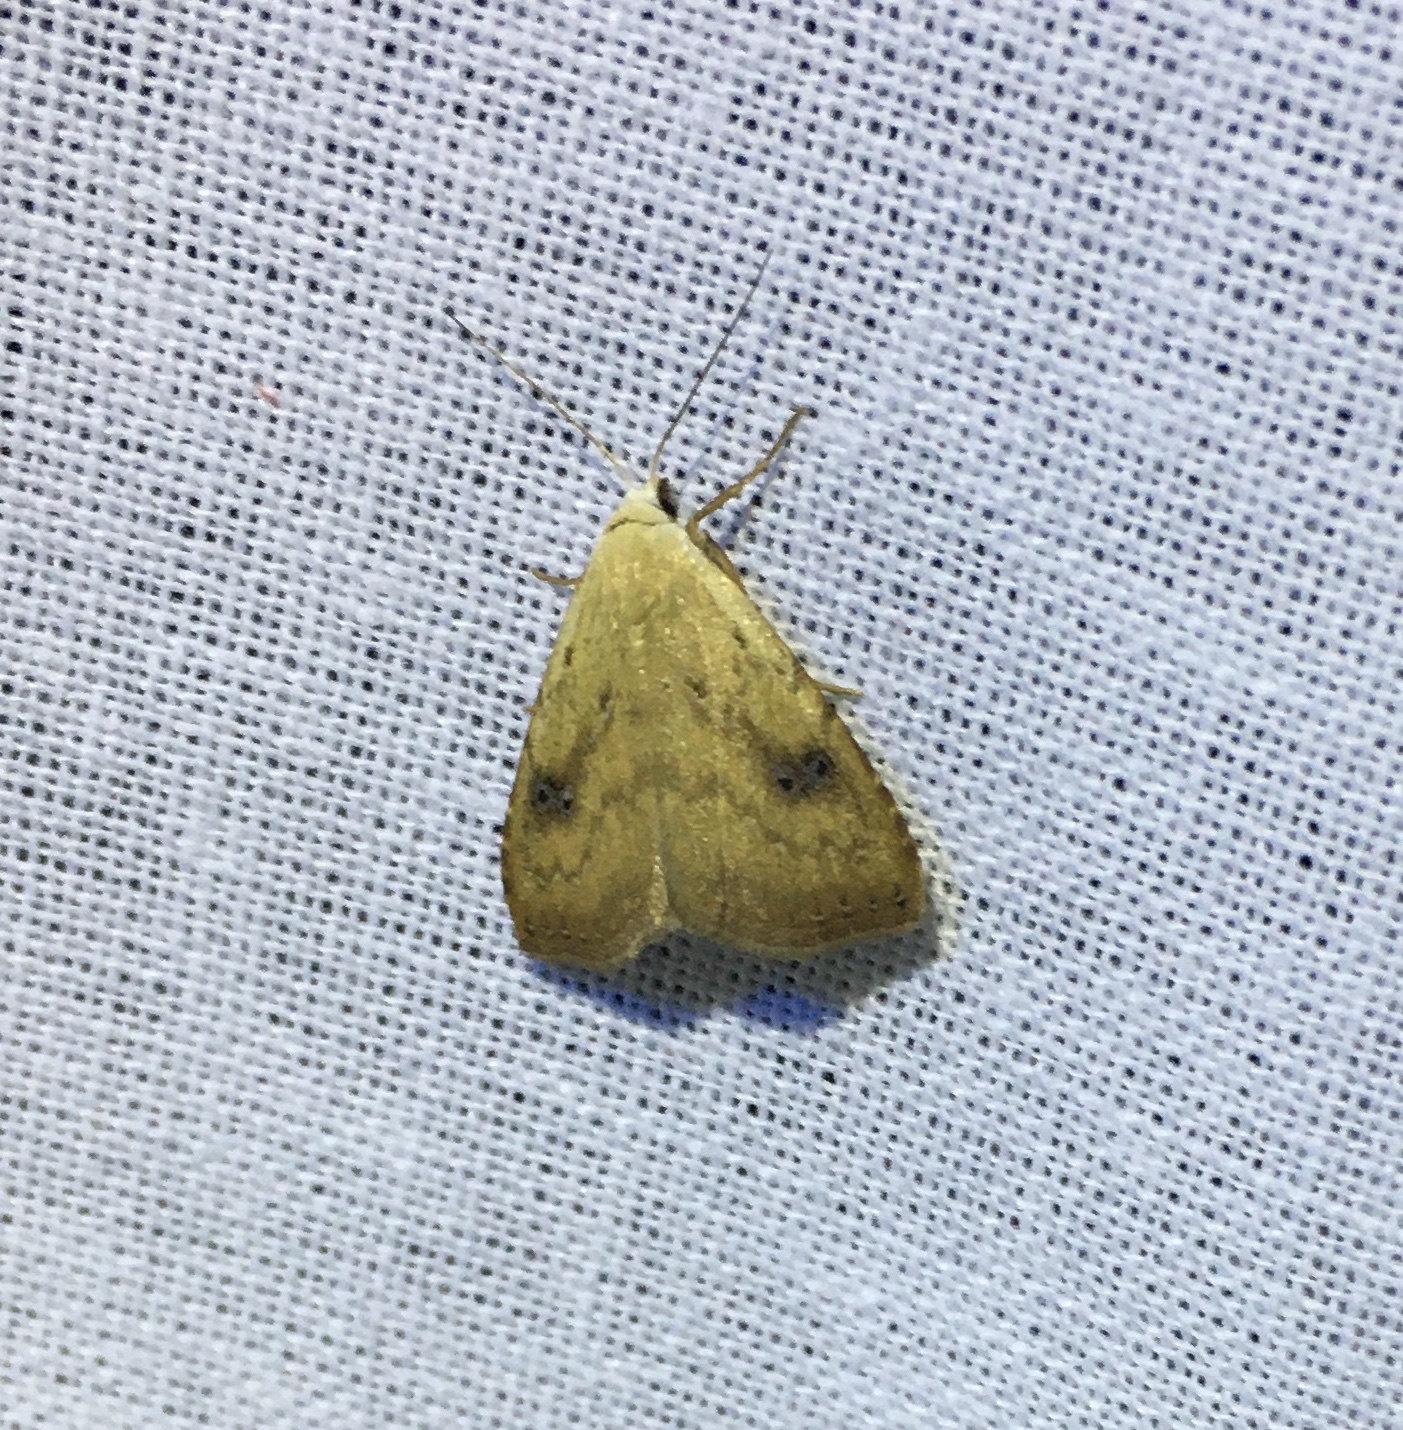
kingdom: Animalia
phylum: Arthropoda
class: Insecta
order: Lepidoptera
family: Erebidae
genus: Rivula
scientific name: Rivula sericealis
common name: Straw dot
